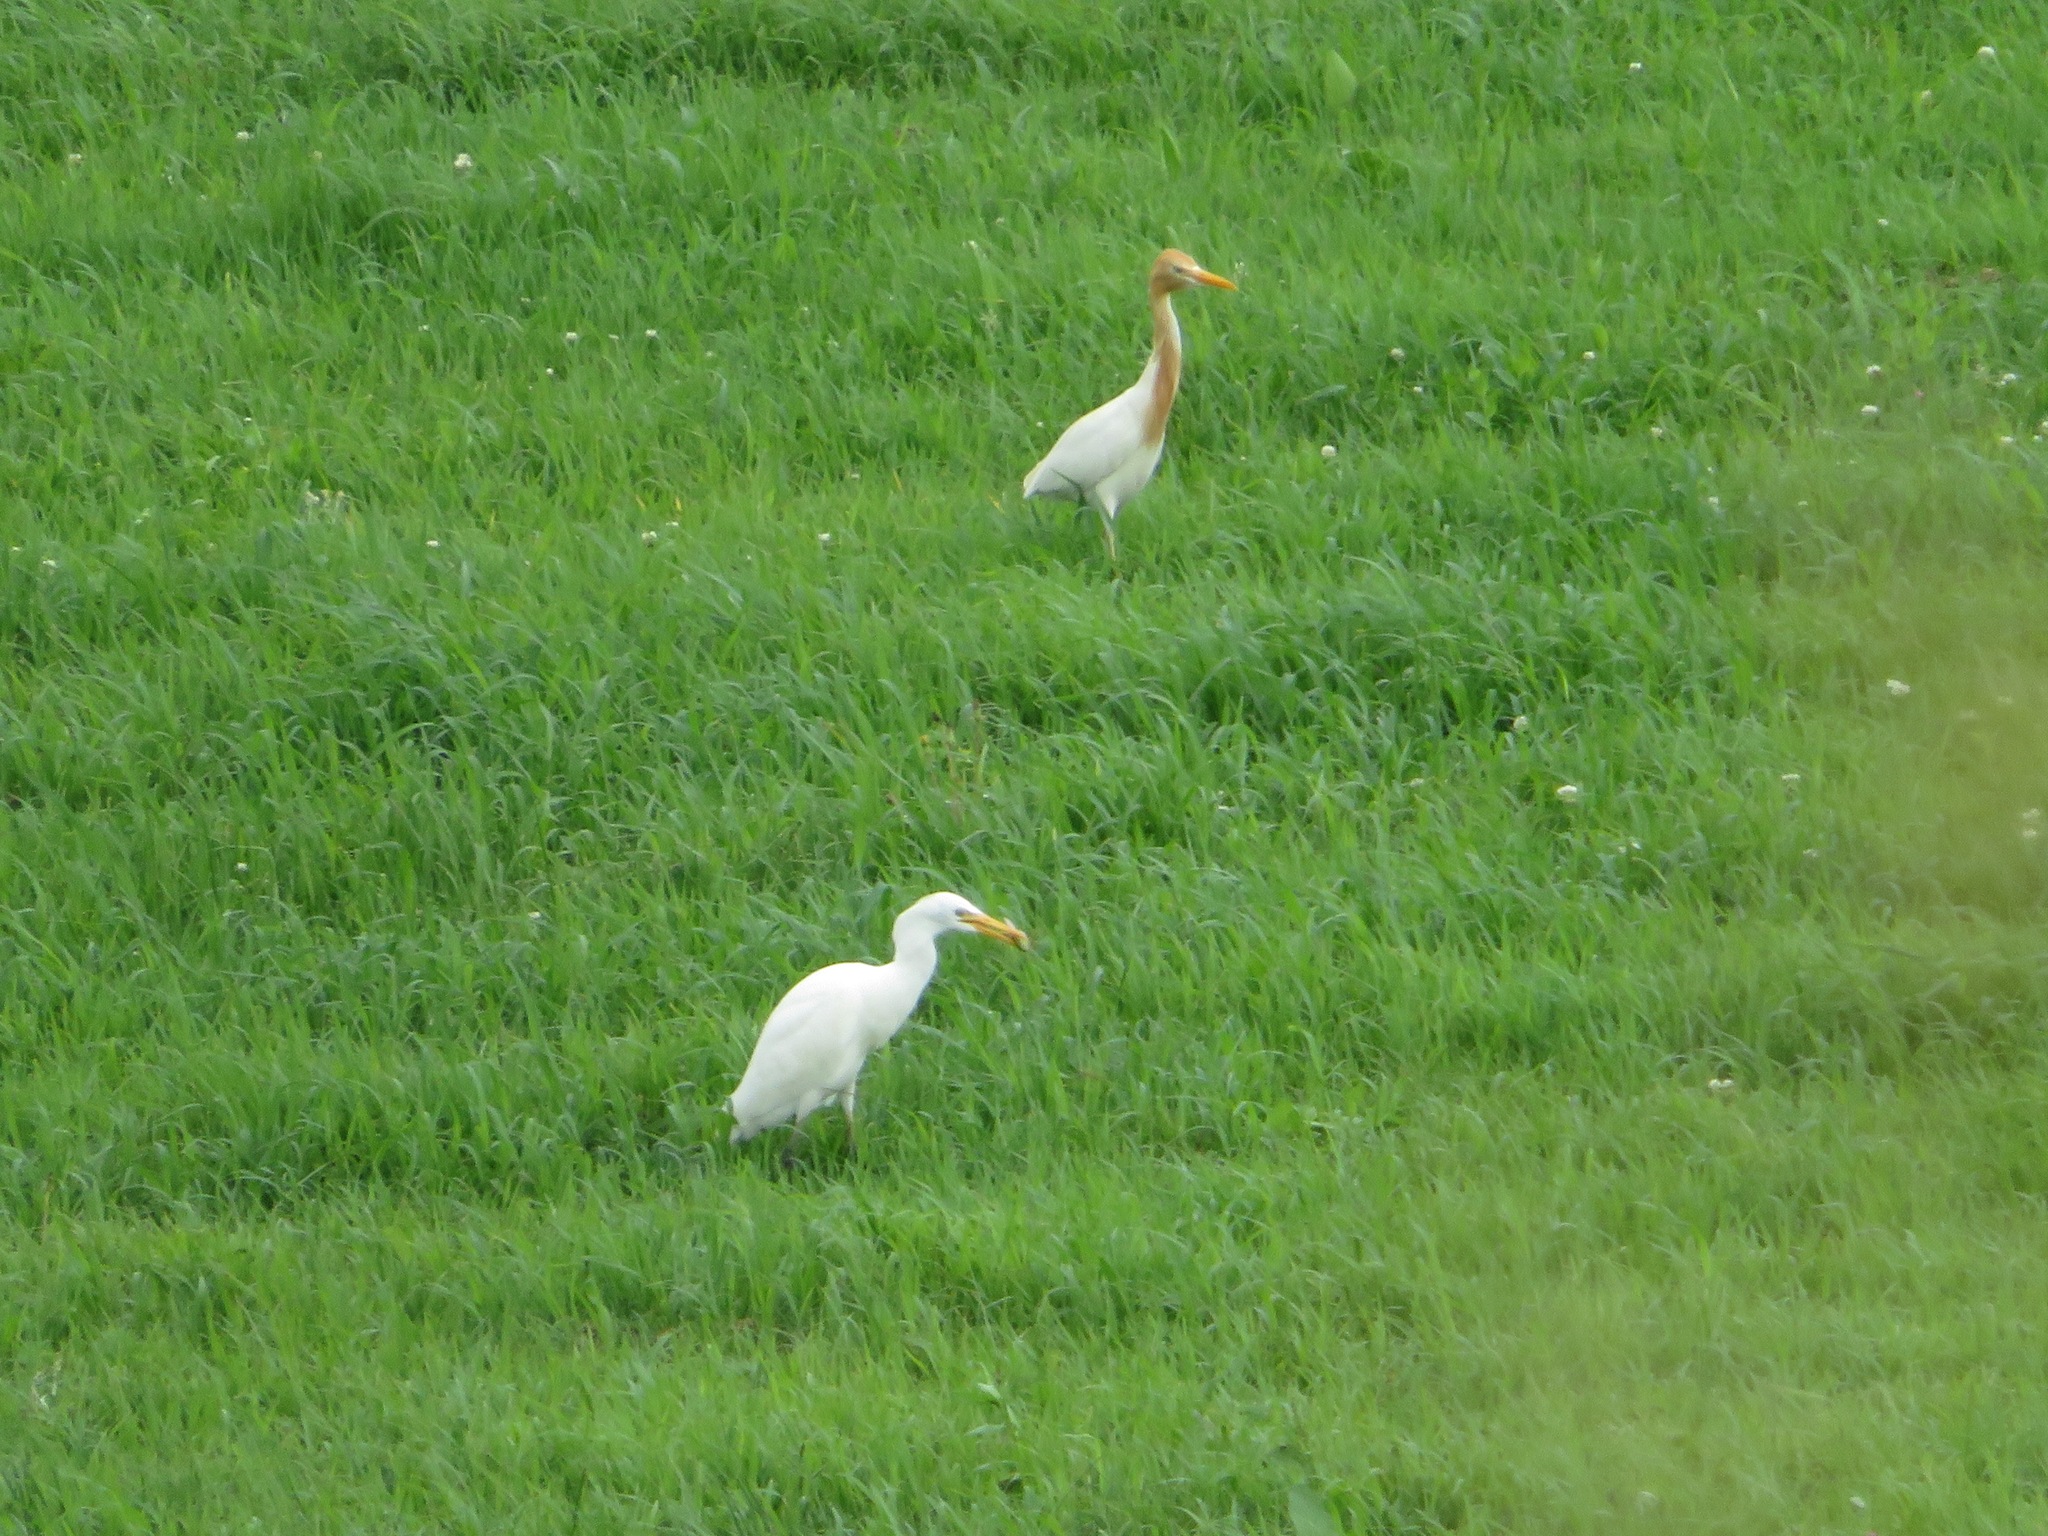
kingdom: Animalia
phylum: Chordata
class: Aves
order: Pelecaniformes
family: Ardeidae
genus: Bubulcus
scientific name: Bubulcus coromandus
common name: Eastern cattle egret
